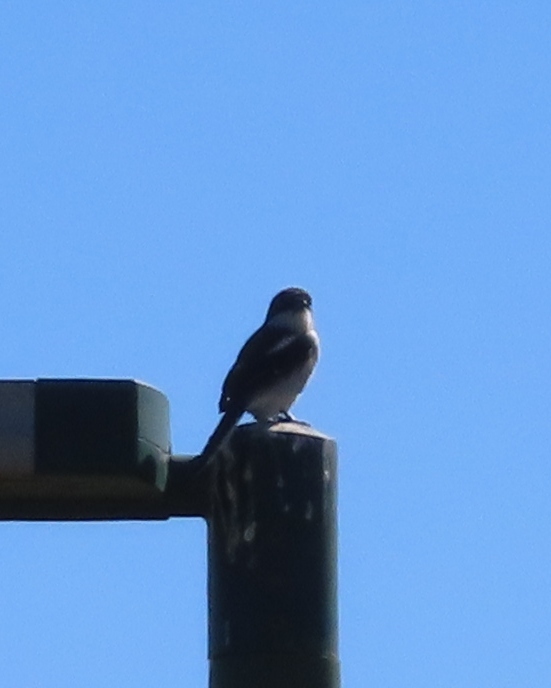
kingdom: Animalia
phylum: Chordata
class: Aves
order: Passeriformes
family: Laniidae
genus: Lanius
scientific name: Lanius collaris
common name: Southern fiscal
